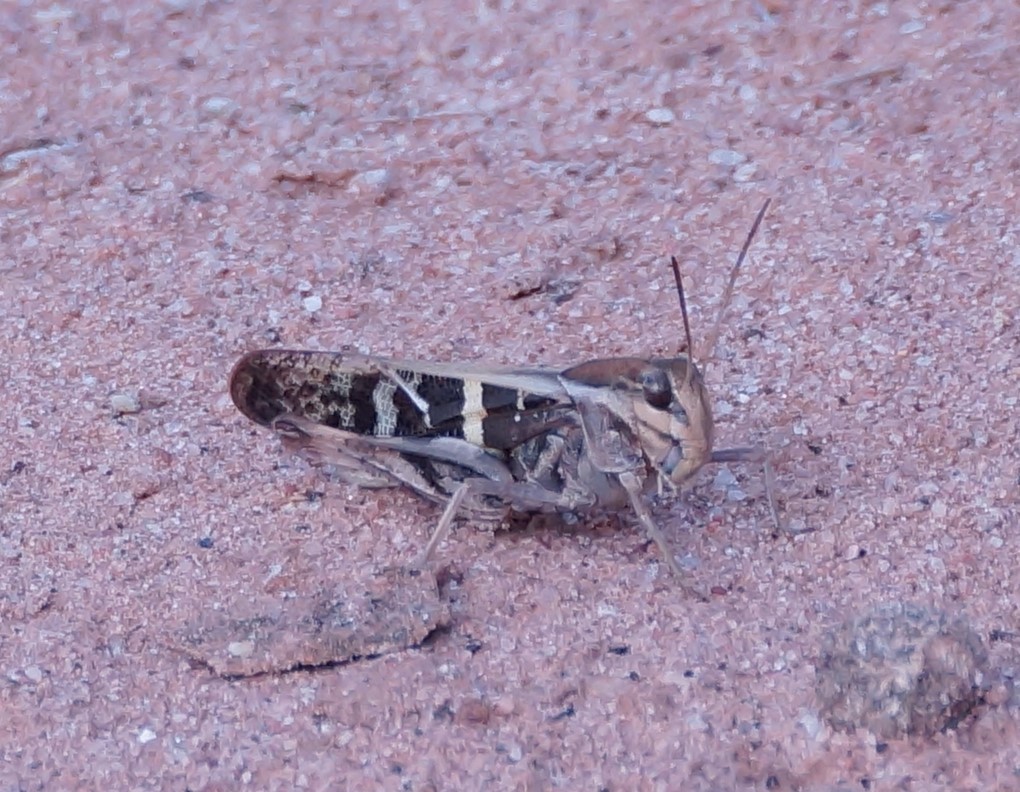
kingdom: Animalia
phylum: Arthropoda
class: Insecta
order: Orthoptera
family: Acrididae
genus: Gastrimargus
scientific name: Gastrimargus musicus
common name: Yellow-winged locust
